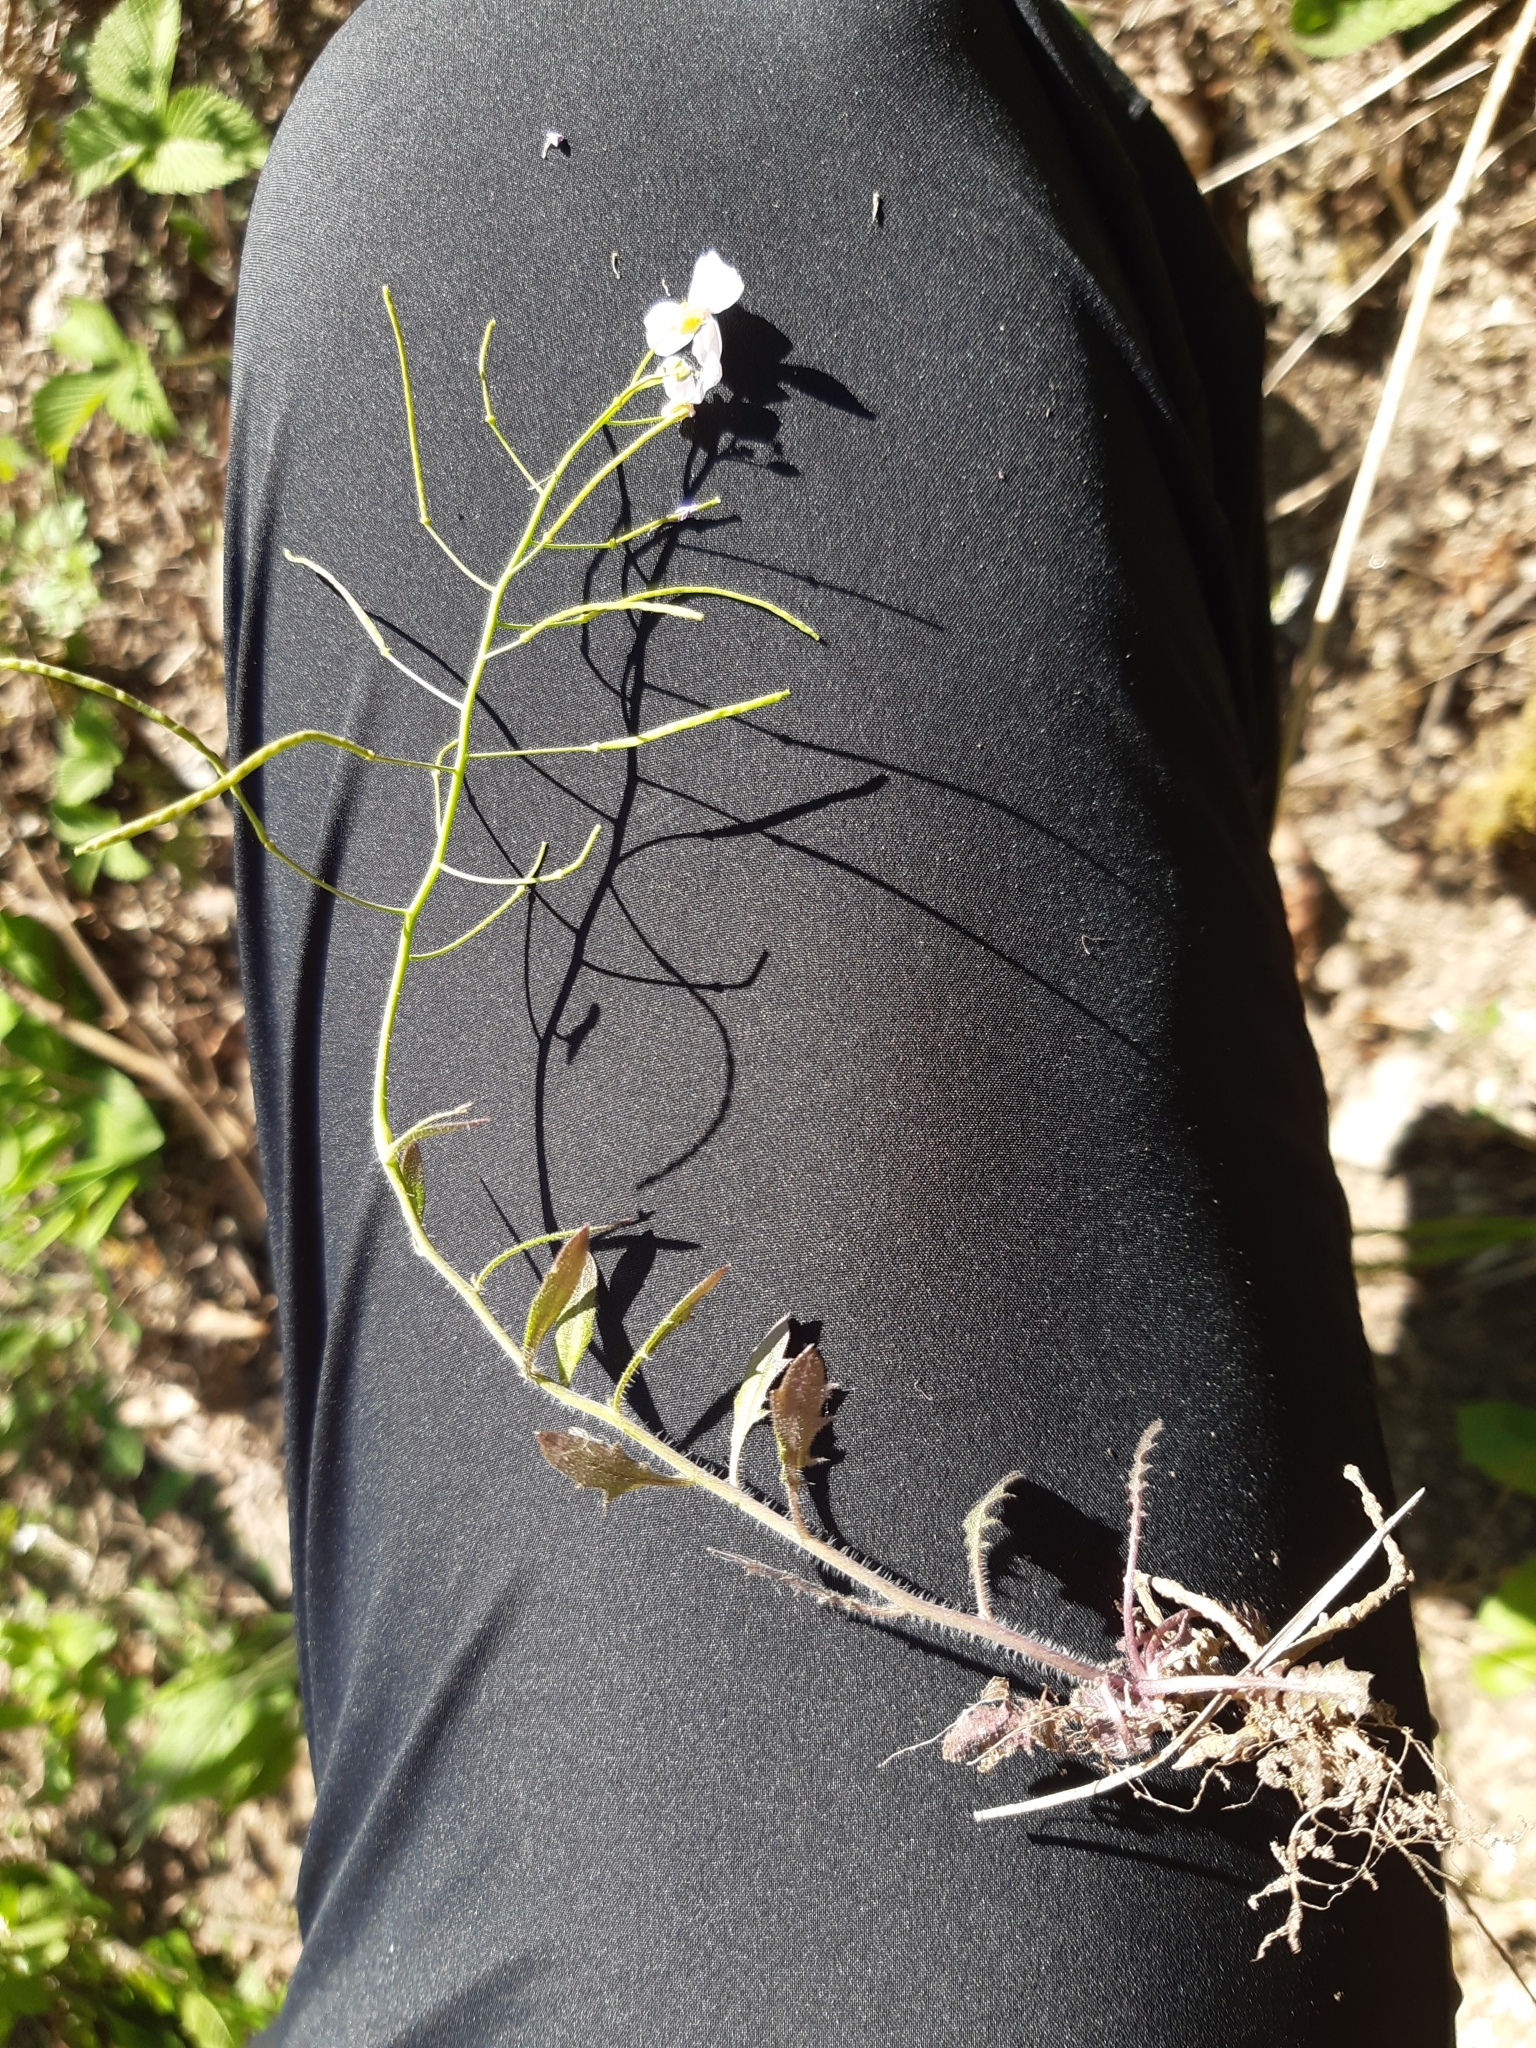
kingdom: Plantae
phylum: Tracheophyta
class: Magnoliopsida
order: Brassicales
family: Brassicaceae
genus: Arabidopsis
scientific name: Arabidopsis arenosa
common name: Sand rock-cress
